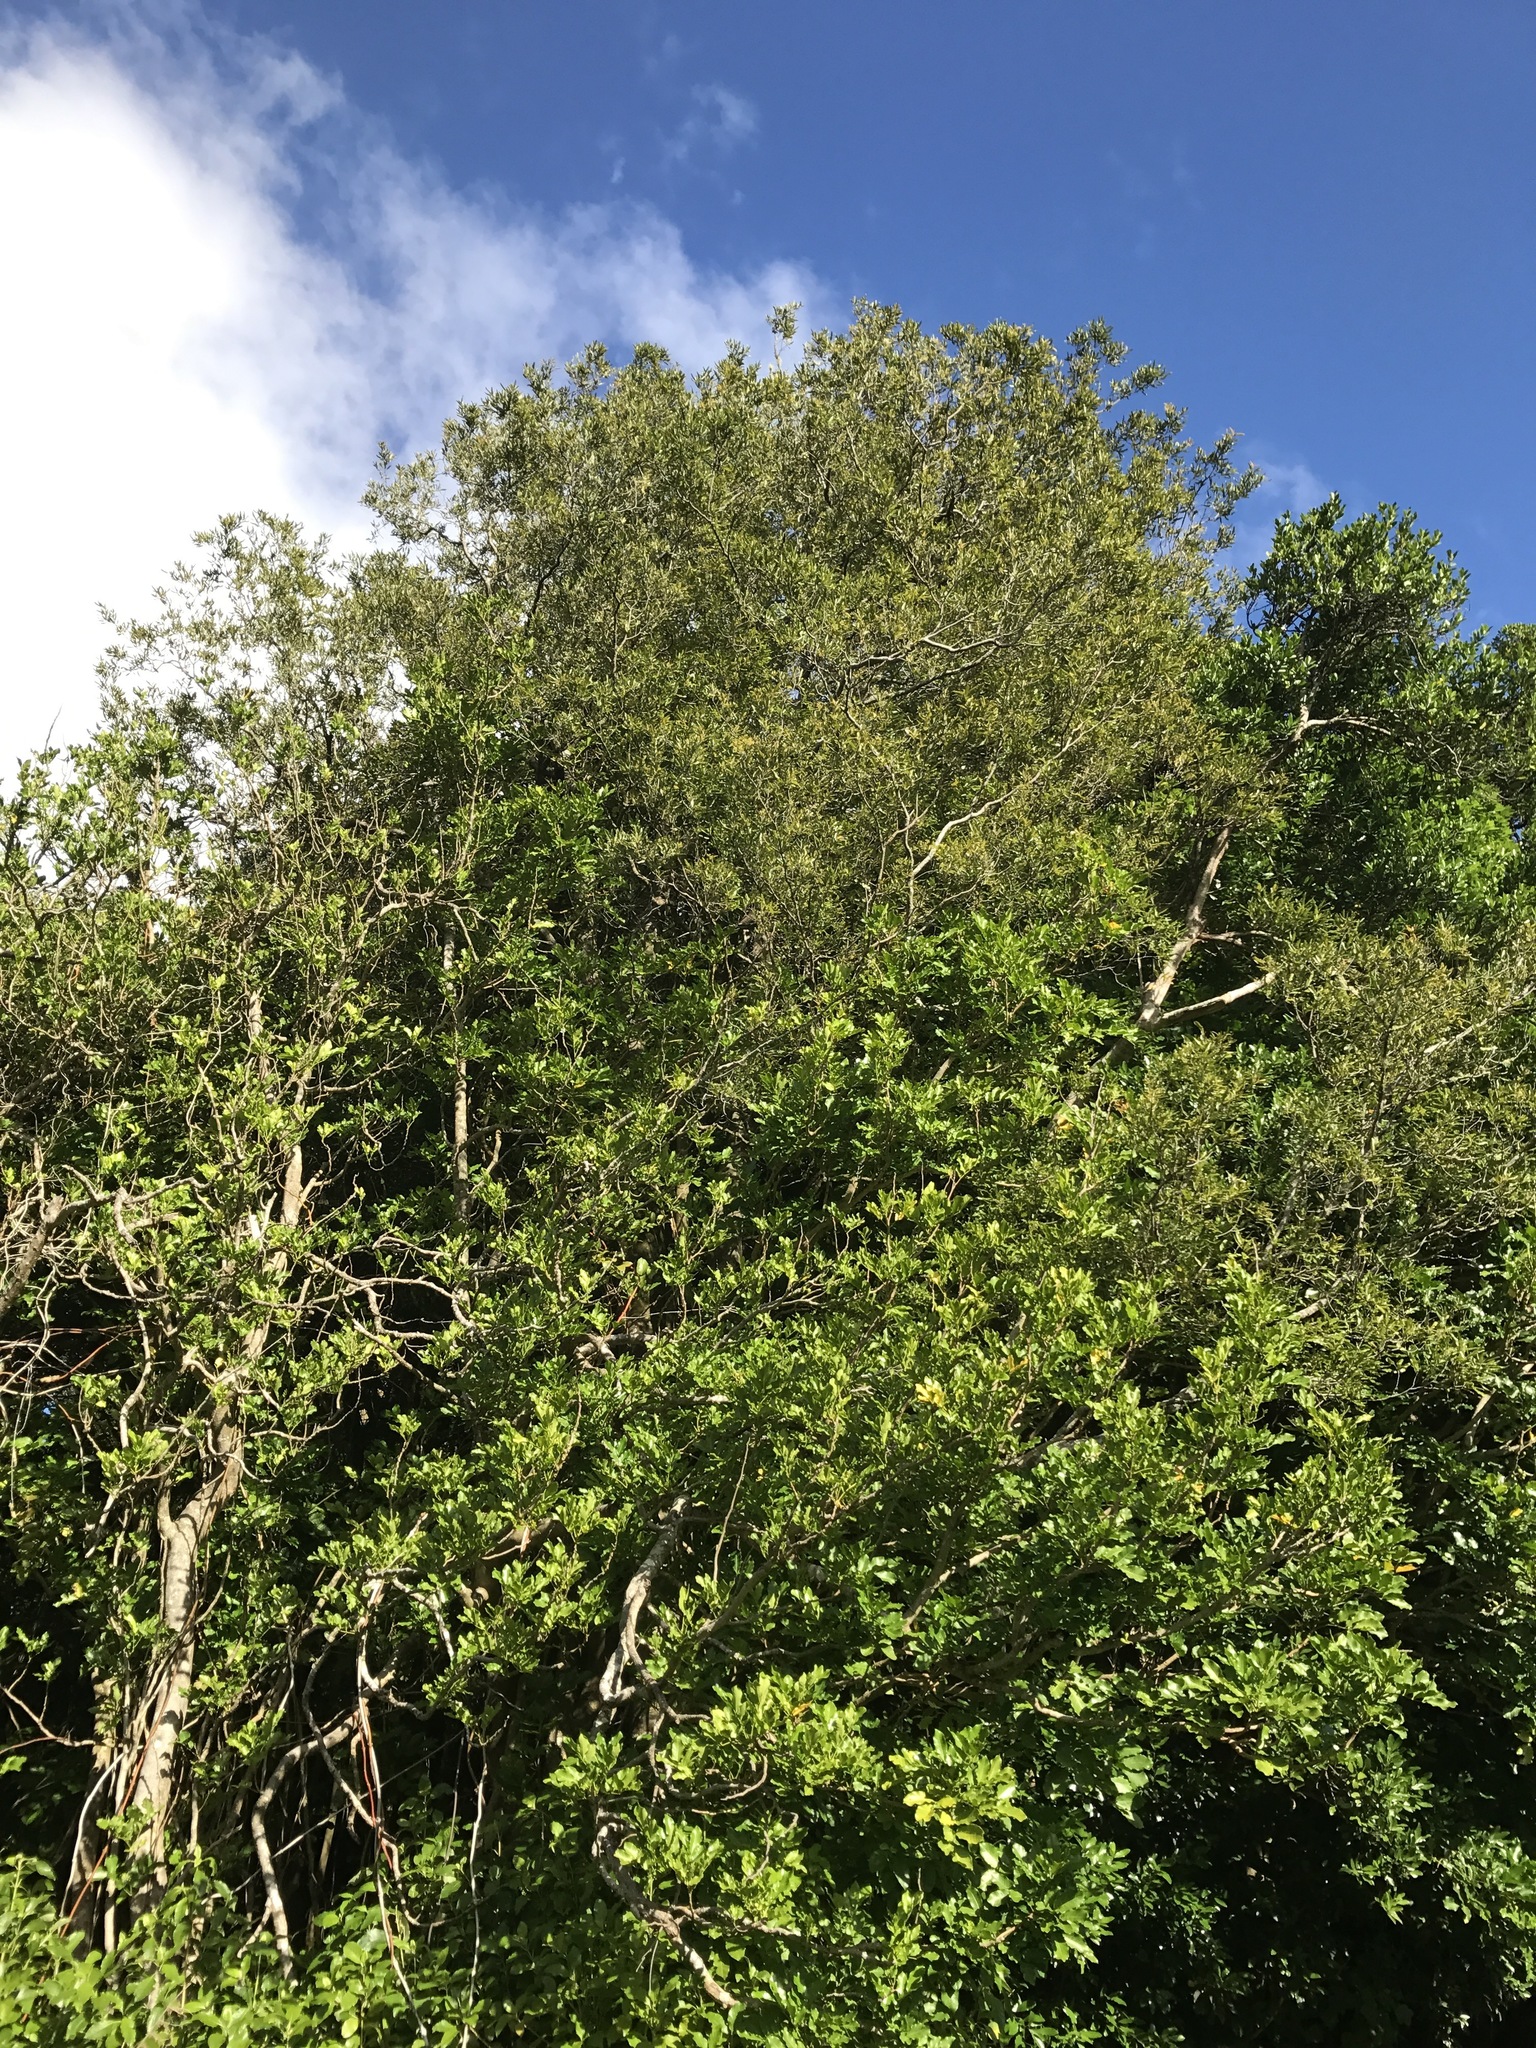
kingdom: Plantae
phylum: Tracheophyta
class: Magnoliopsida
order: Laurales
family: Lauraceae
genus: Beilschmiedia
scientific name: Beilschmiedia tawa
